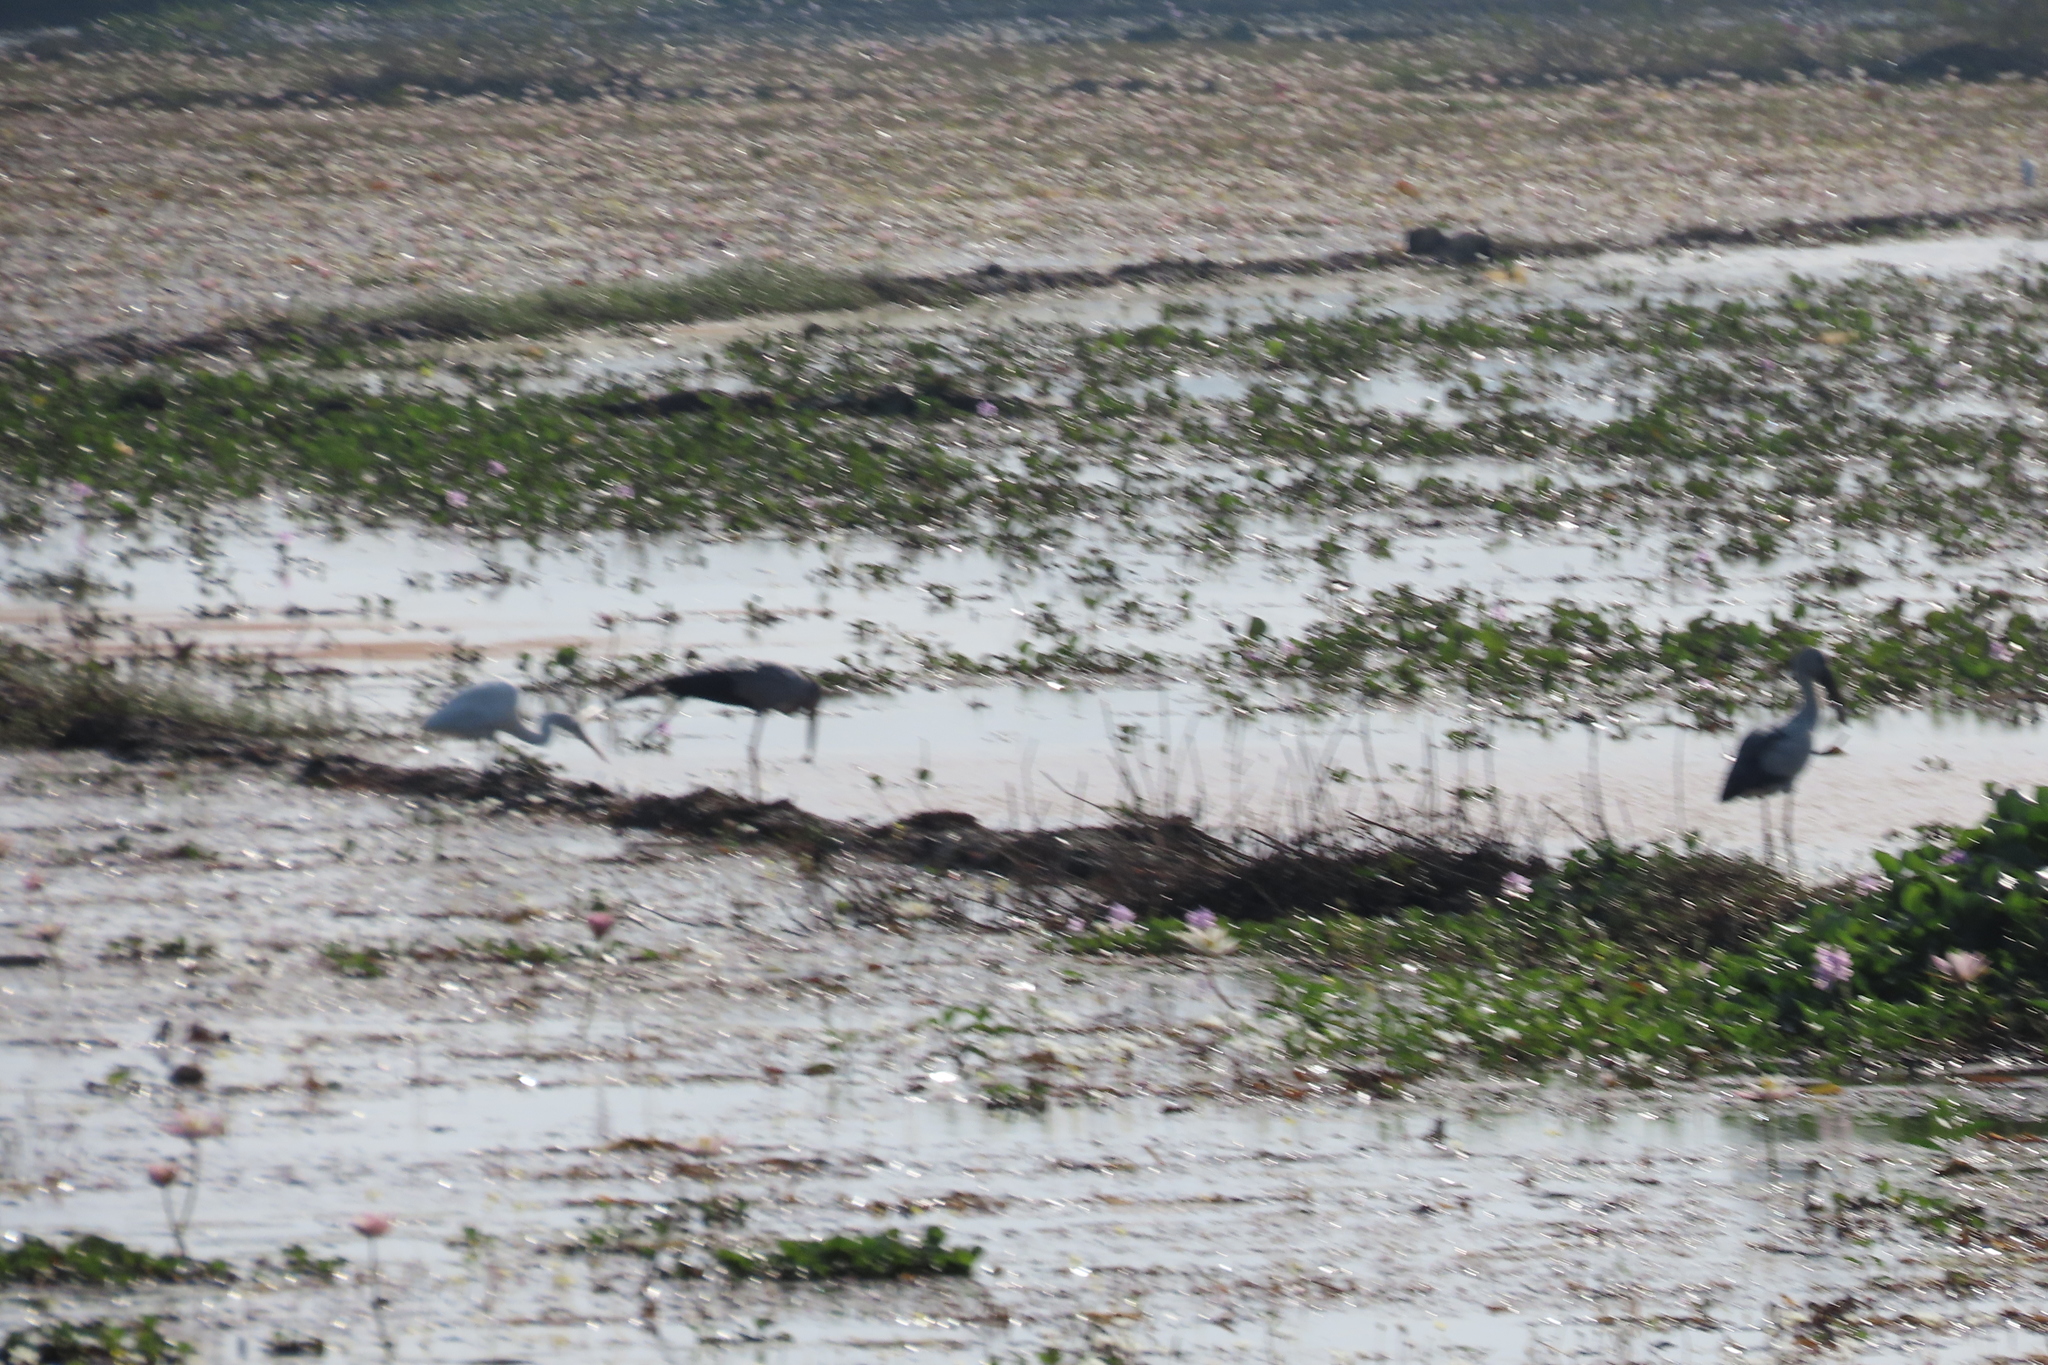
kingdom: Animalia
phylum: Chordata
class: Aves
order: Ciconiiformes
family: Ciconiidae
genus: Anastomus
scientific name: Anastomus oscitans
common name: Asian openbill
